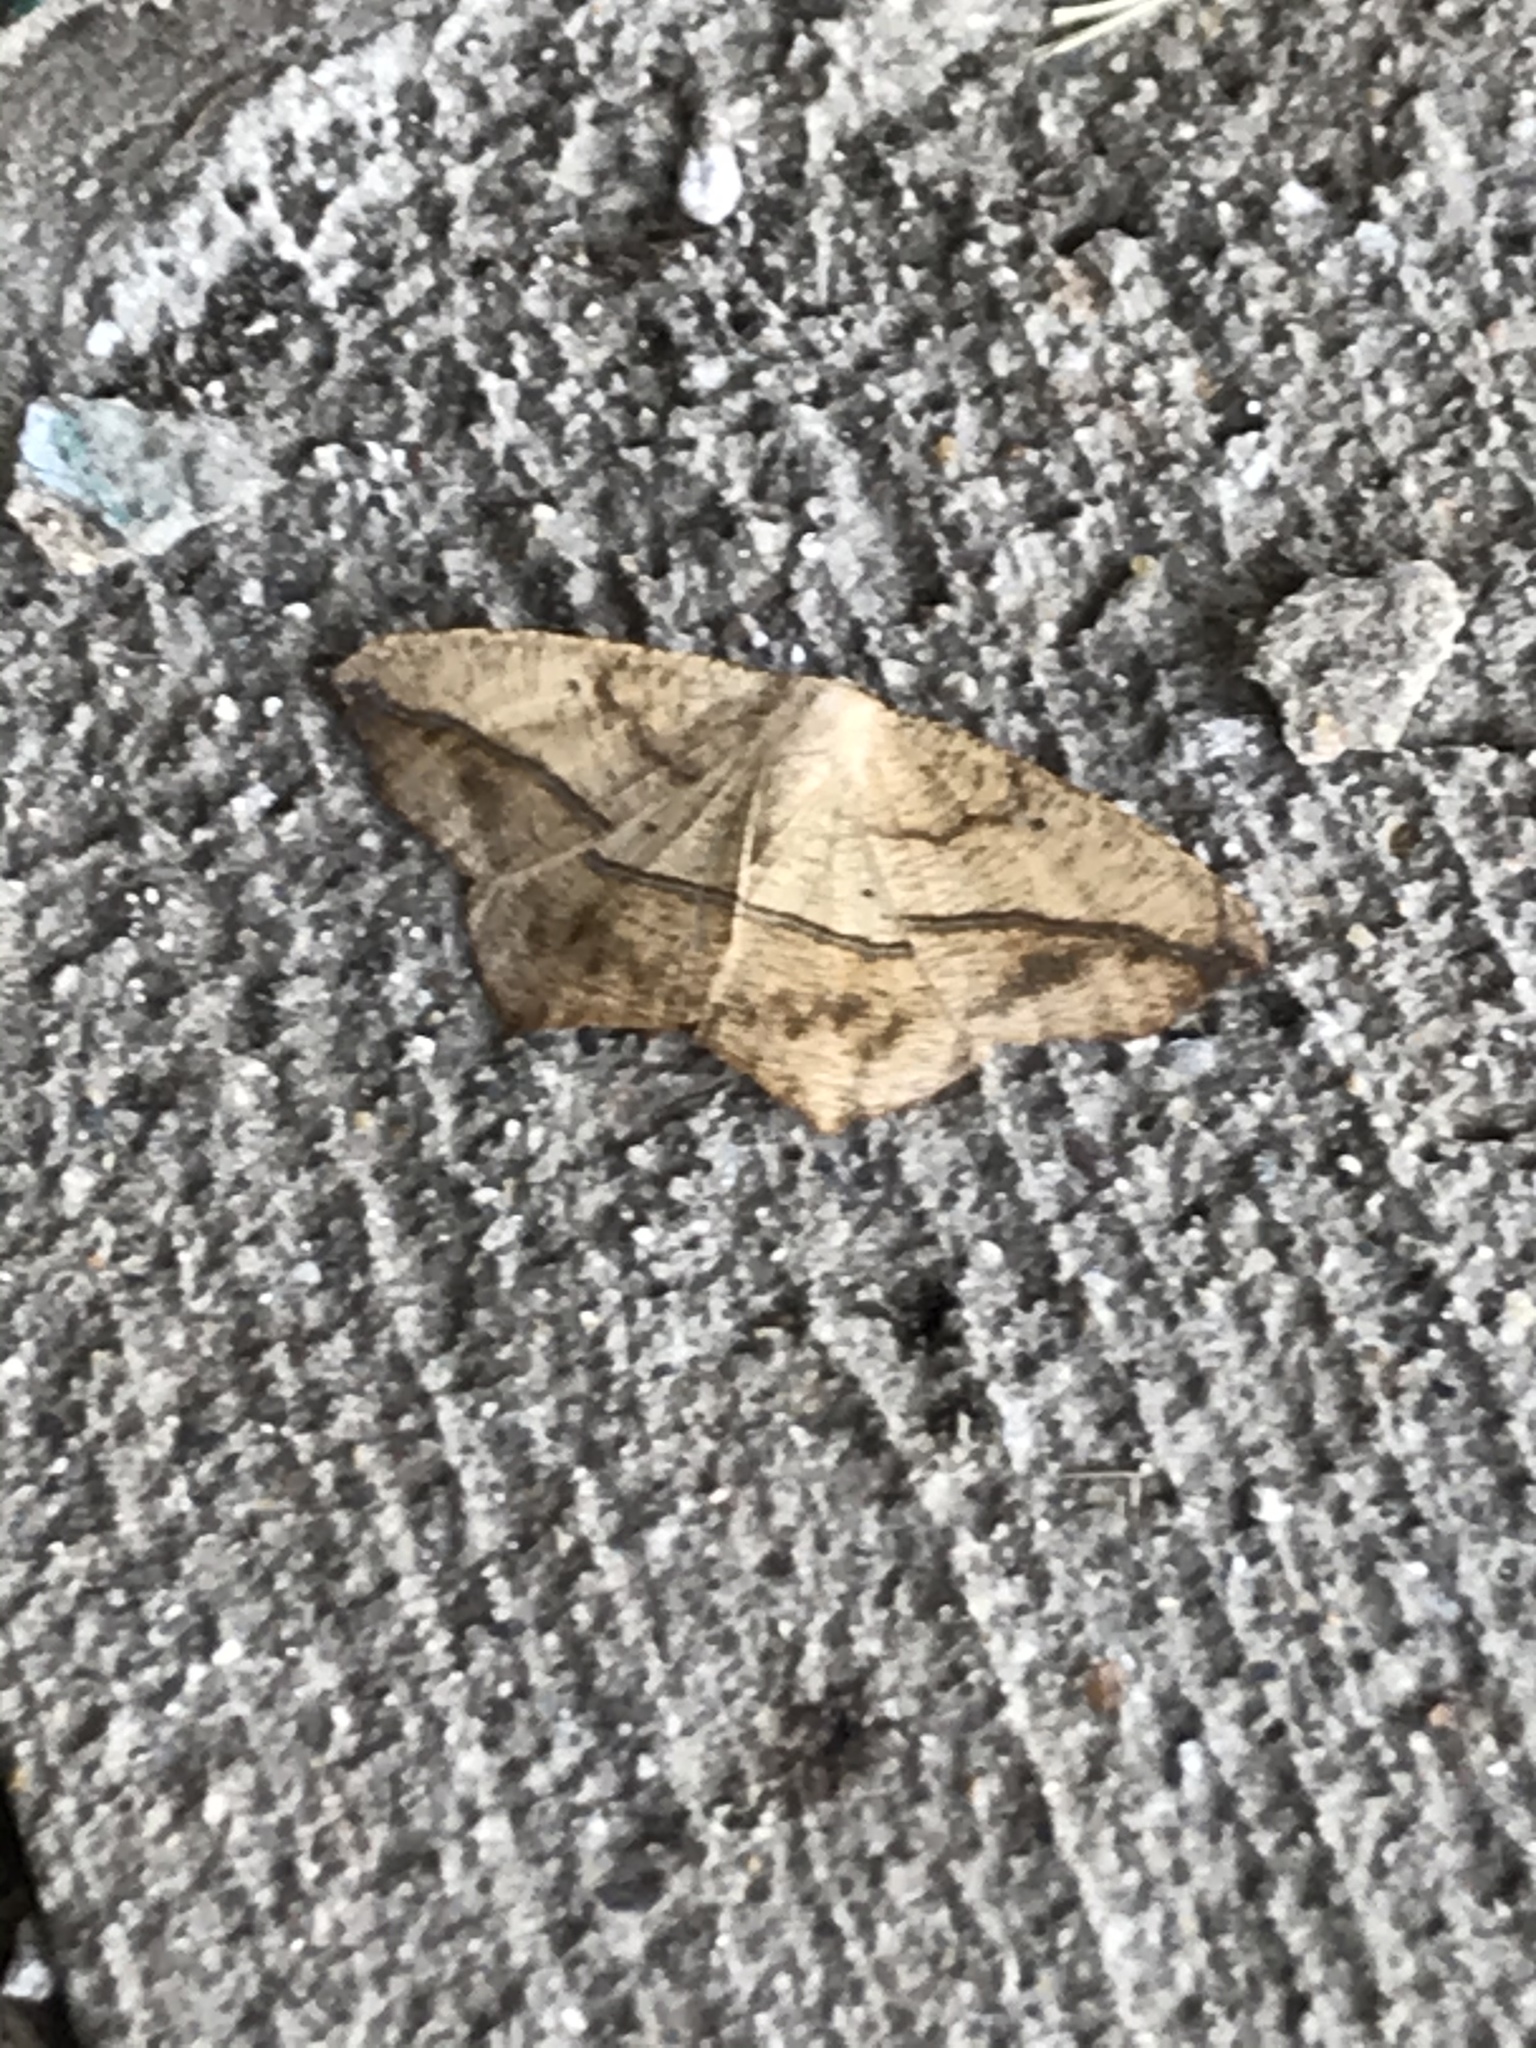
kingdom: Animalia
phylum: Arthropoda
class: Insecta
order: Lepidoptera
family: Geometridae
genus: Prochoerodes
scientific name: Prochoerodes lineola
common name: Large maple spanworm
